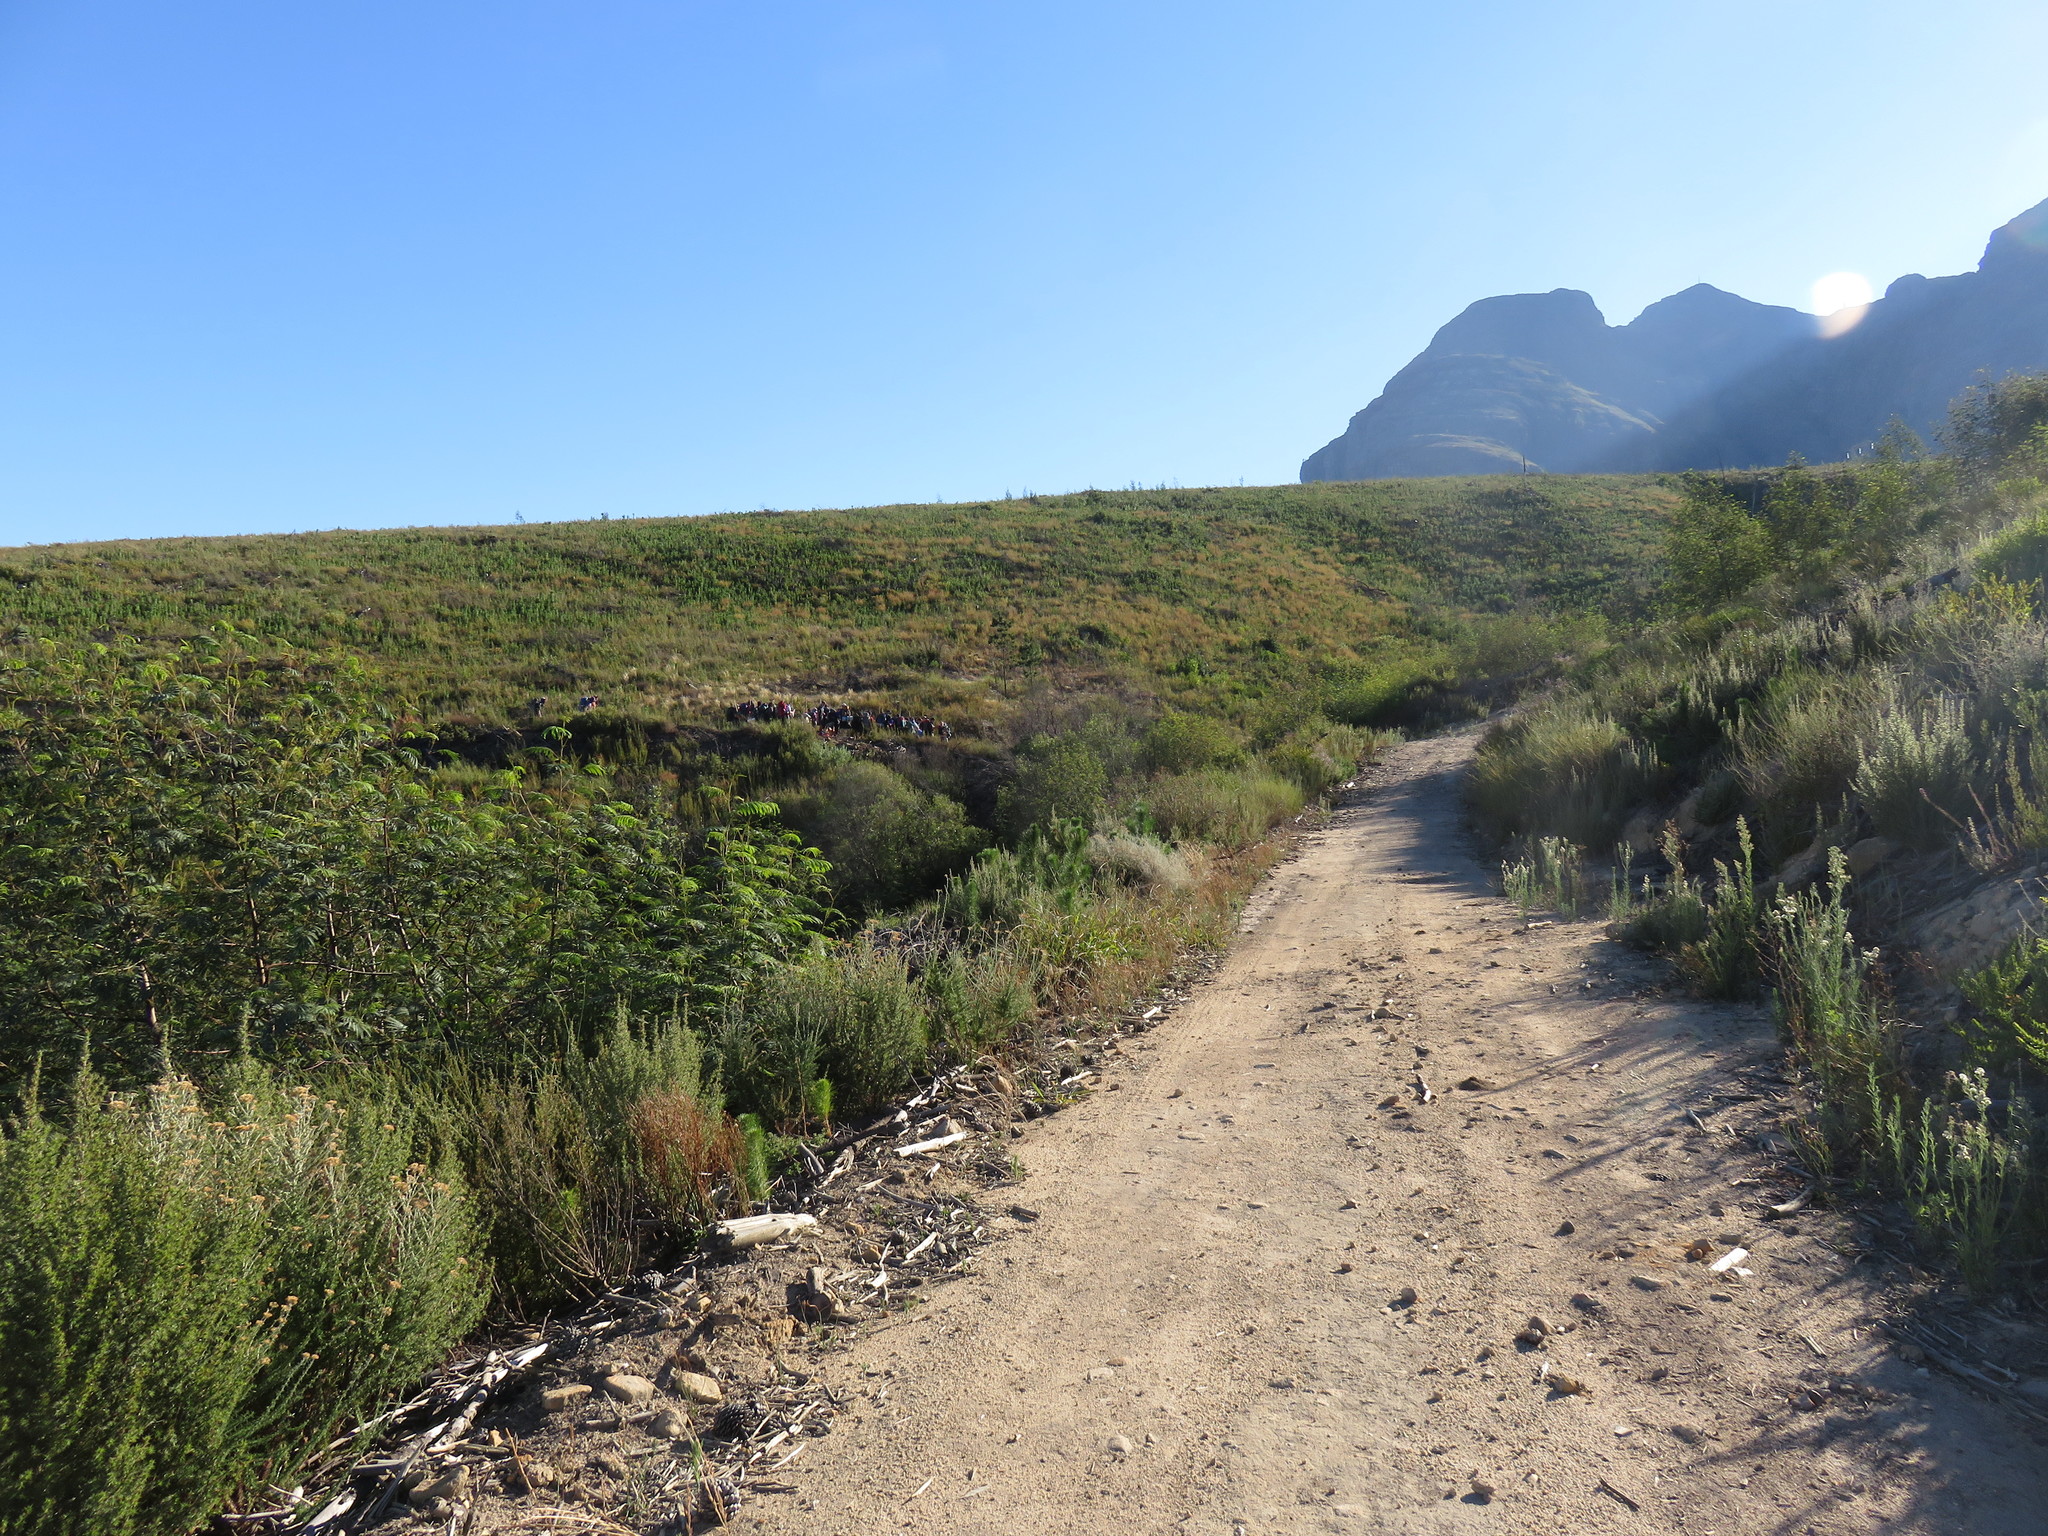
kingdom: Plantae
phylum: Tracheophyta
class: Magnoliopsida
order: Fabales
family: Fabaceae
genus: Paraserianthes
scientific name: Paraserianthes lophantha
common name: Plume albizia
